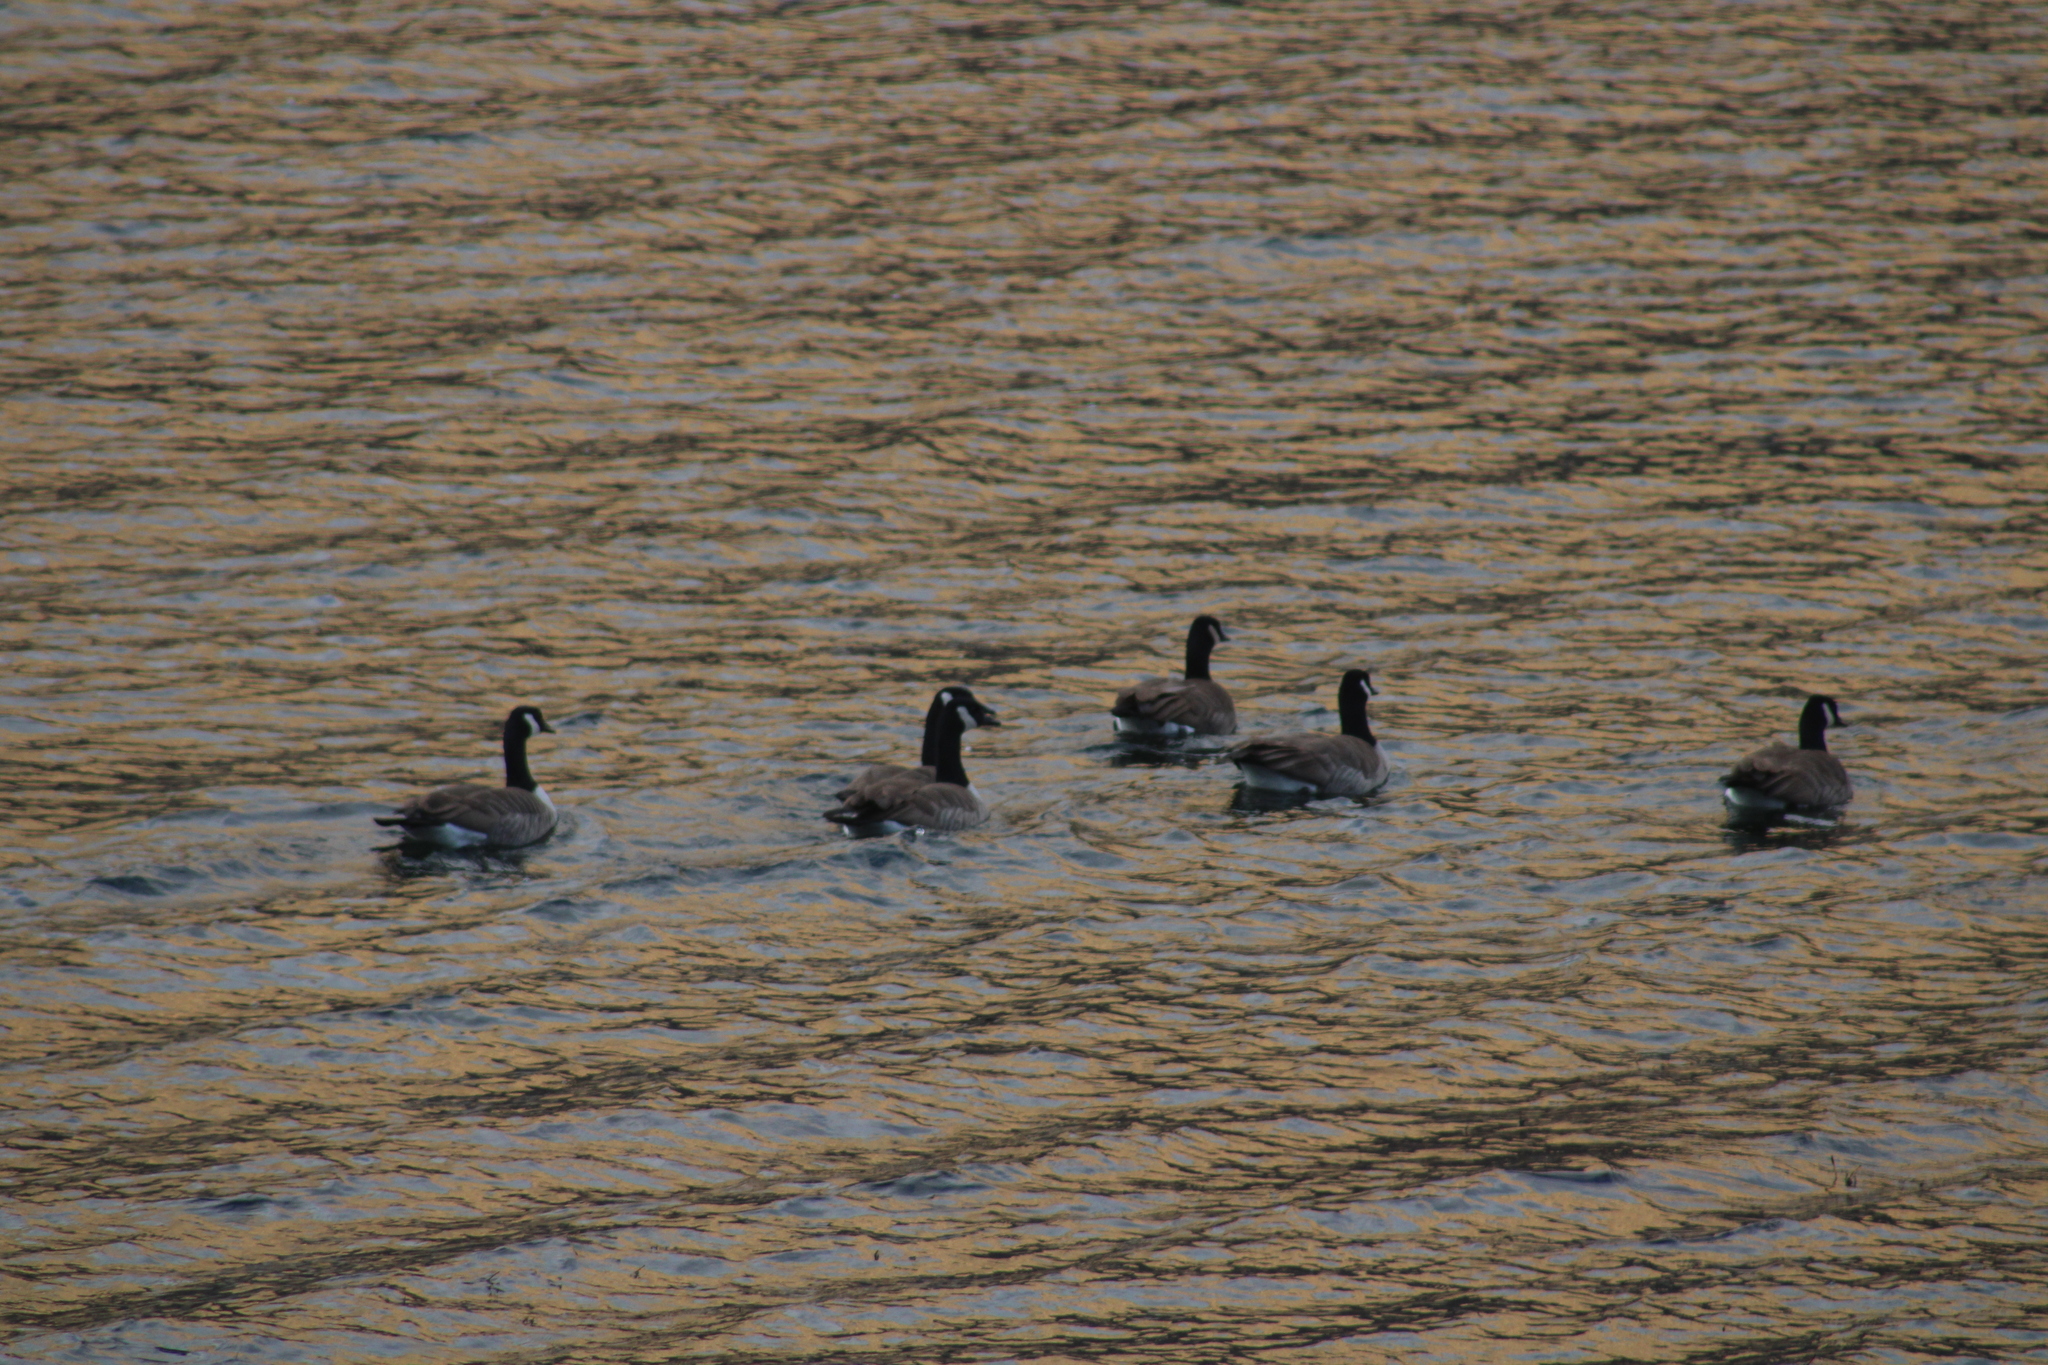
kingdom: Animalia
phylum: Chordata
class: Aves
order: Anseriformes
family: Anatidae
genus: Branta
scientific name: Branta canadensis
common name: Canada goose
